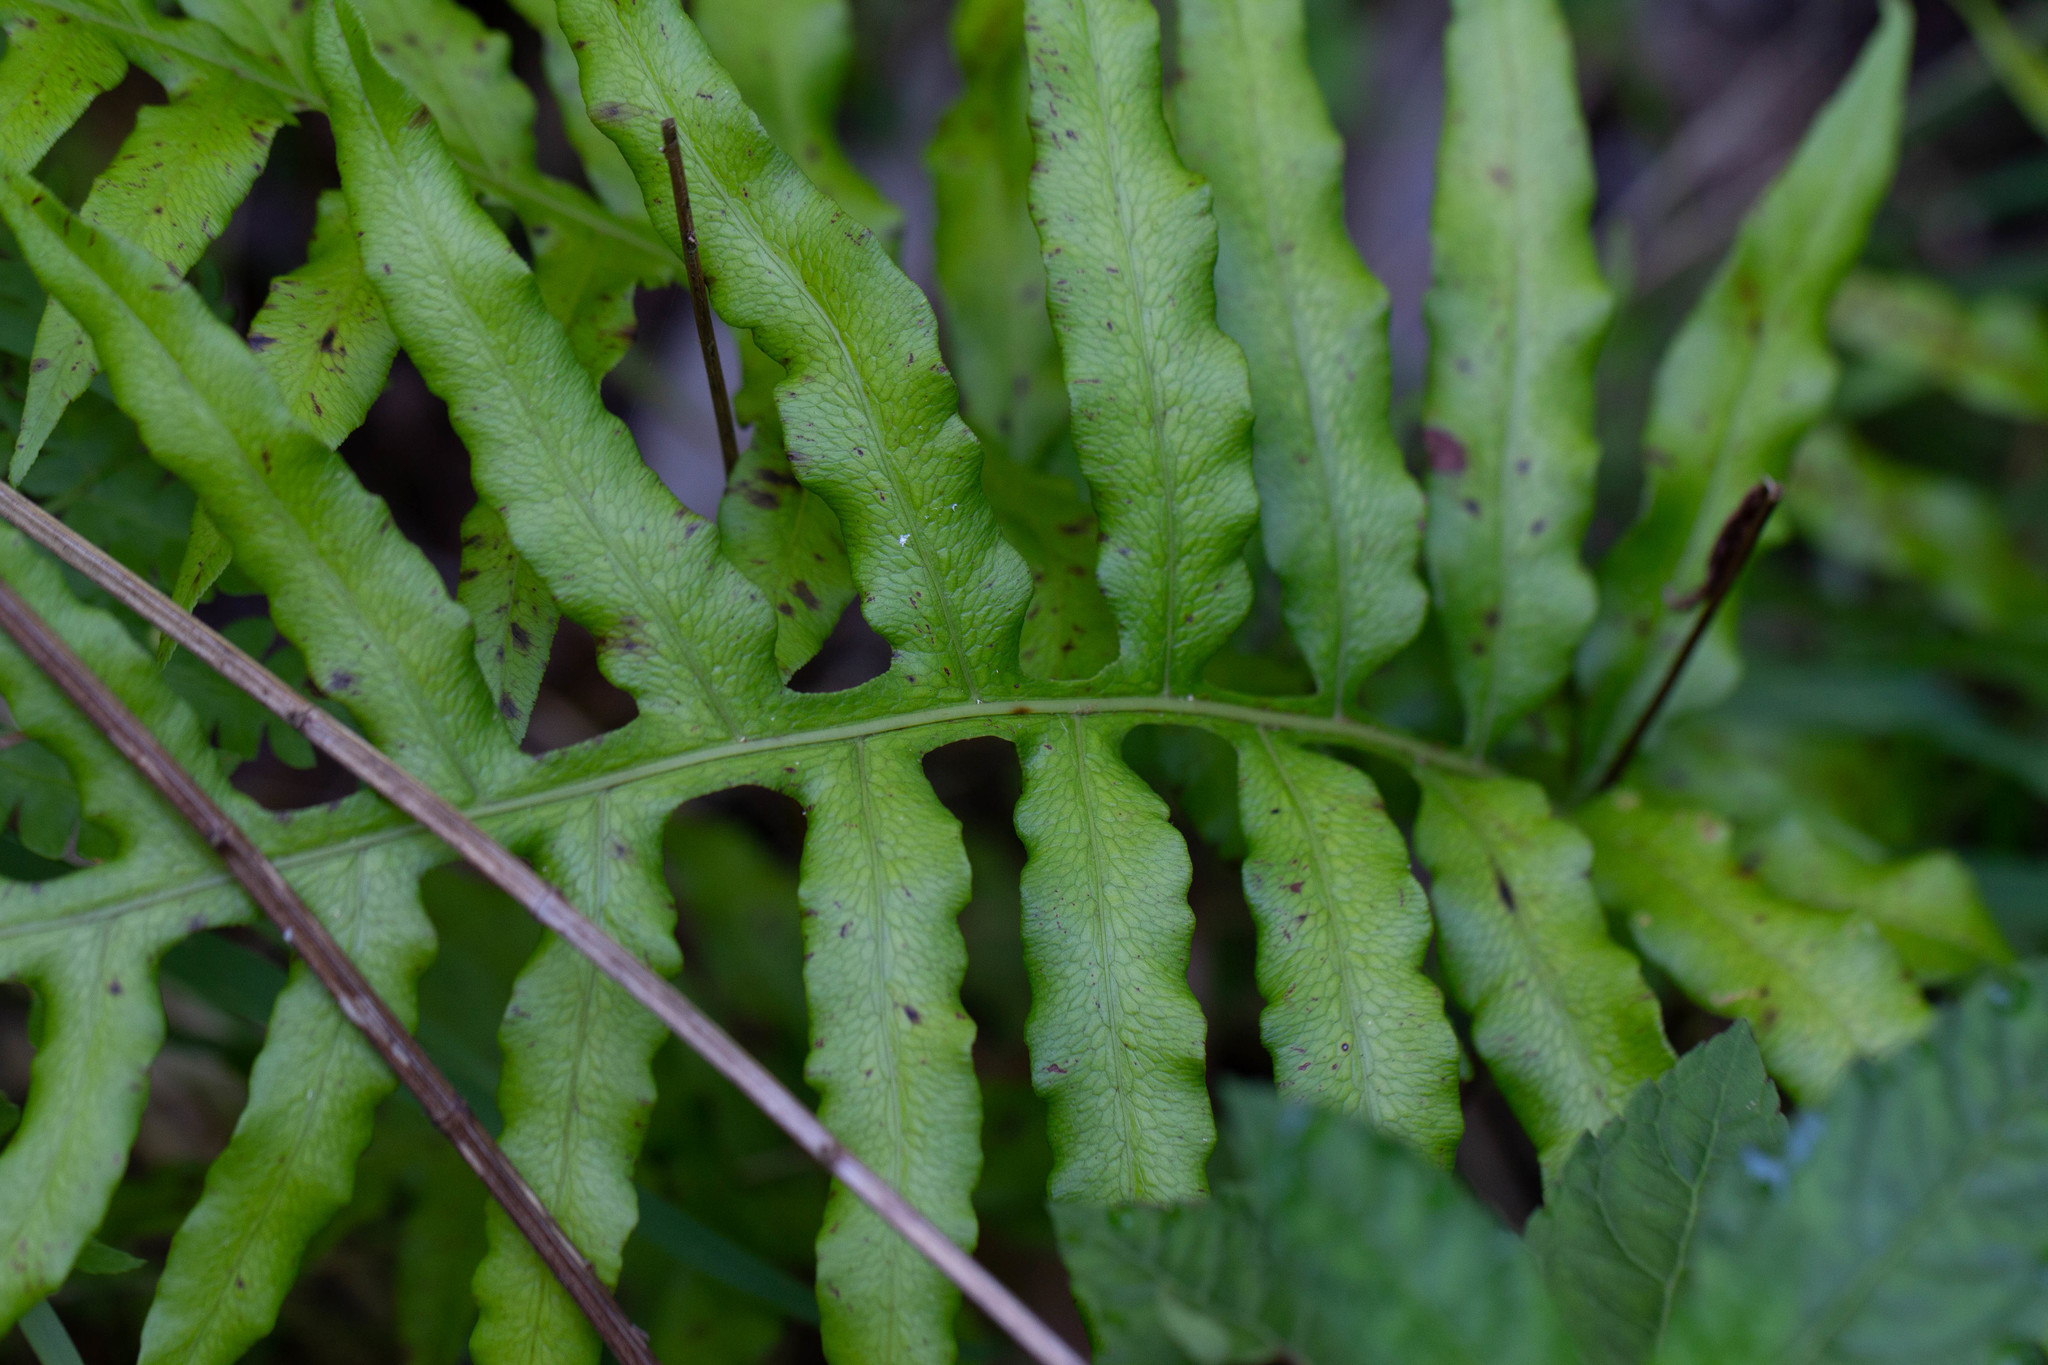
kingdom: Plantae
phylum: Tracheophyta
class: Polypodiopsida
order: Polypodiales
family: Blechnaceae
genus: Lorinseria
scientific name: Lorinseria areolata
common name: Dwarf chain fern
